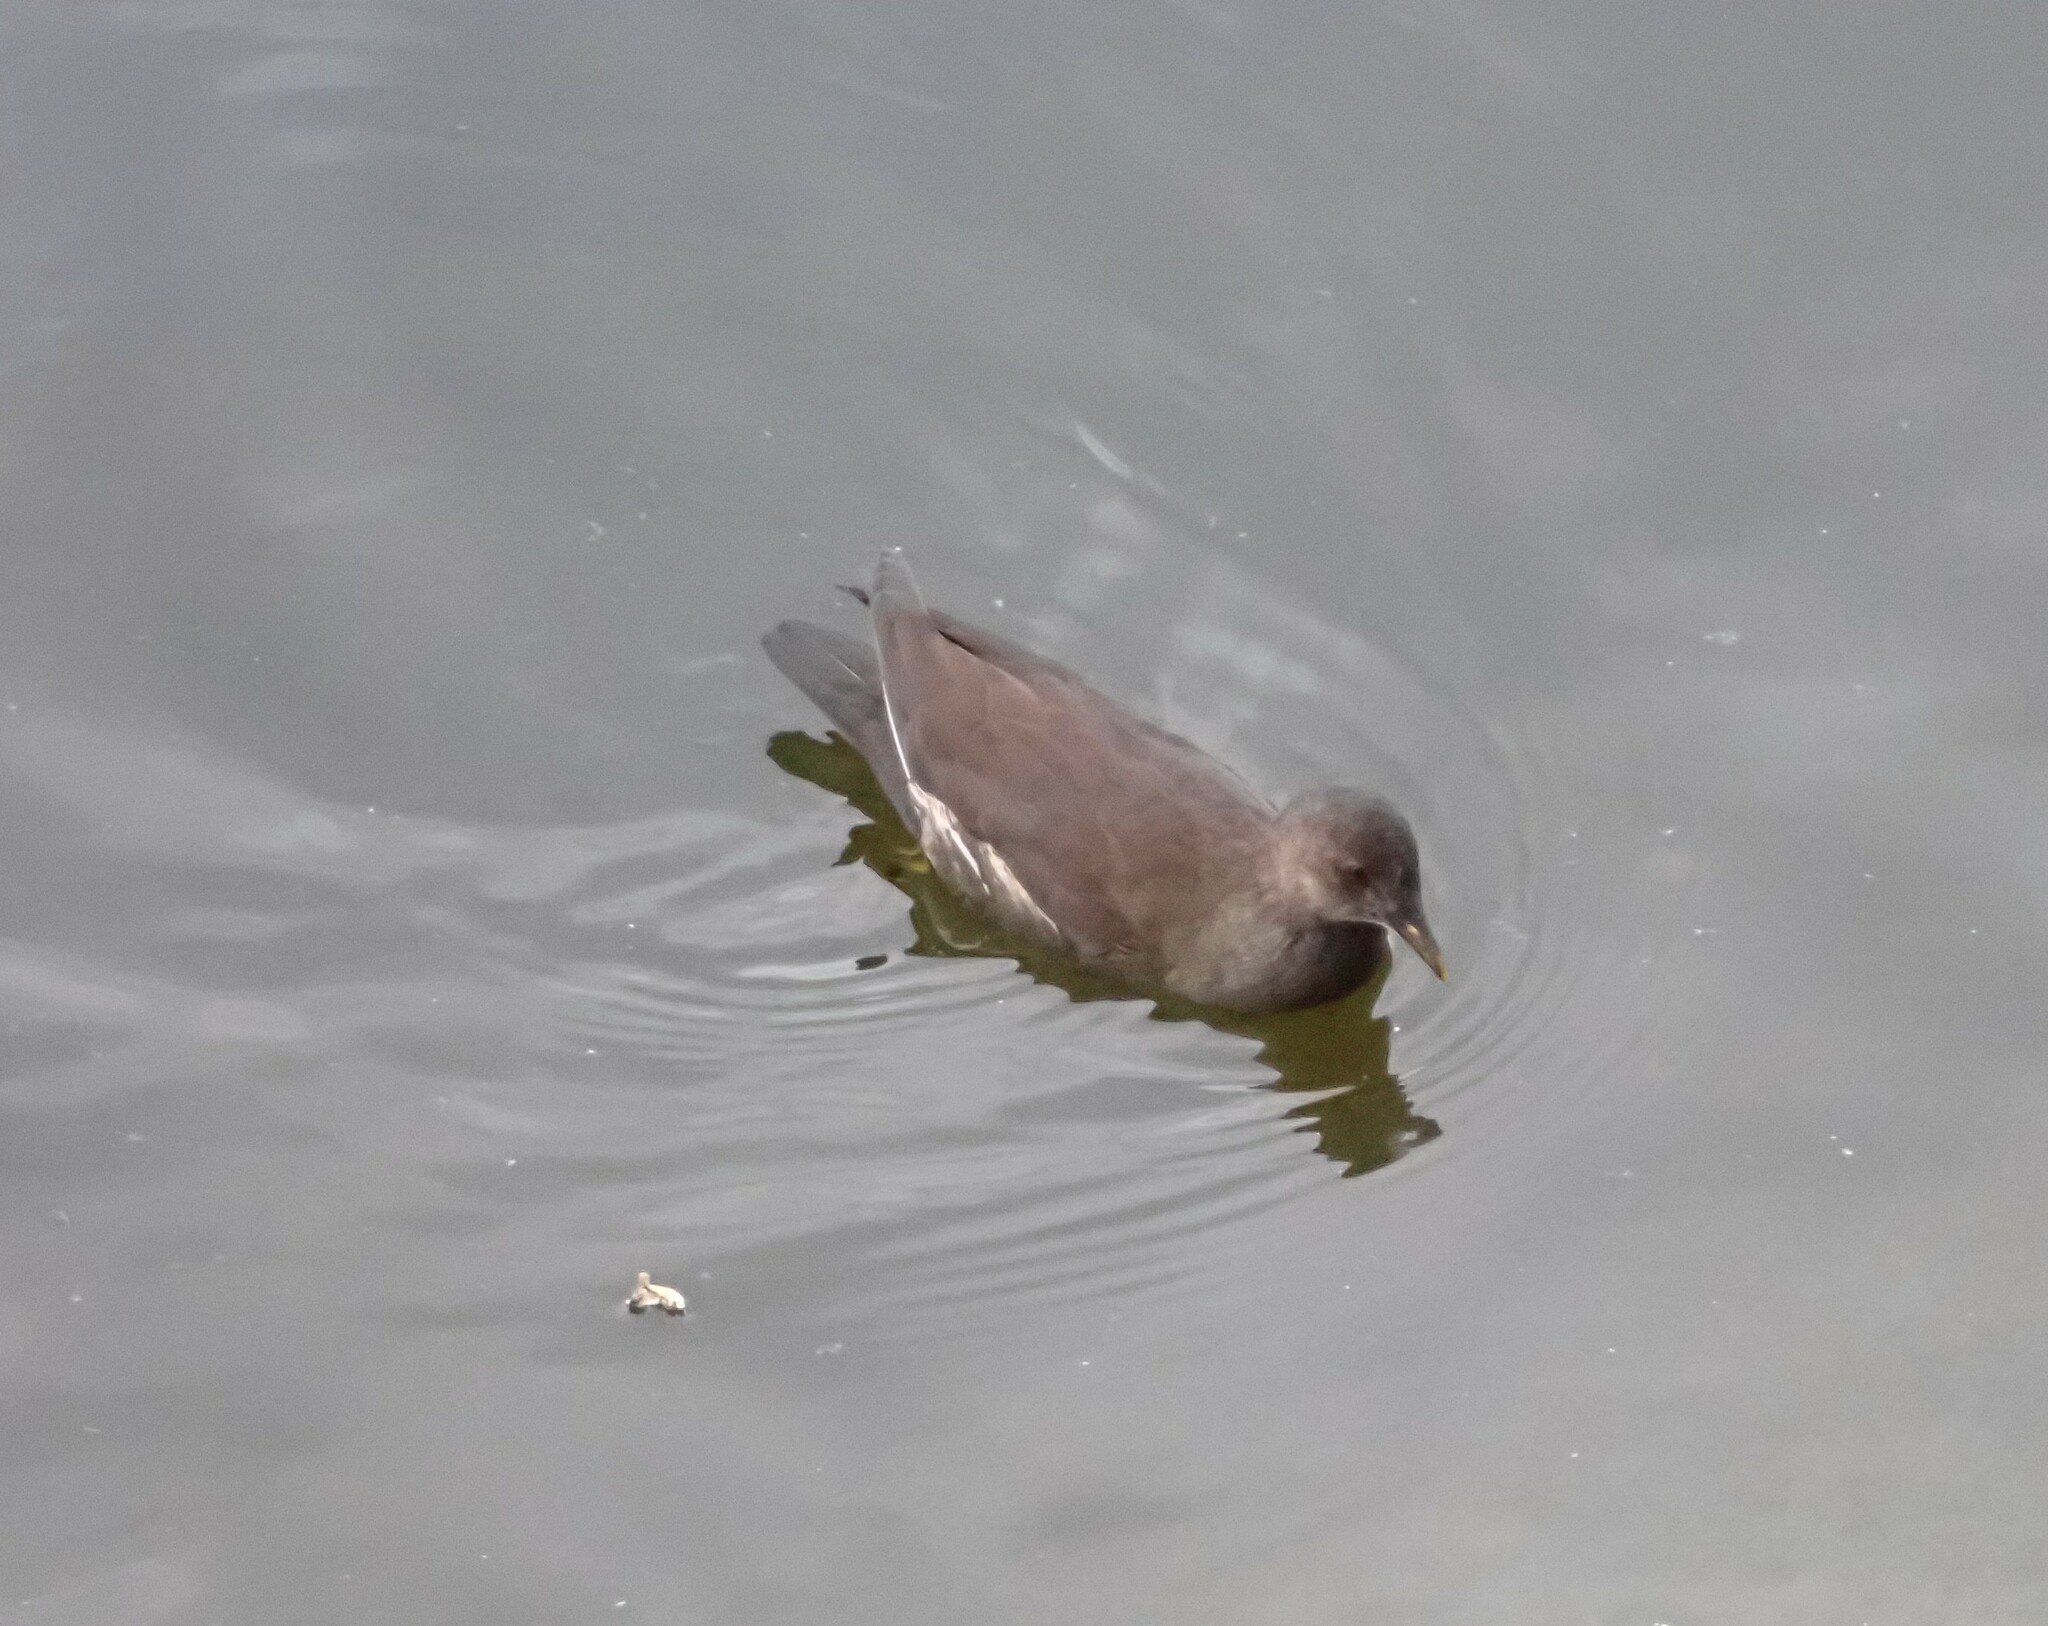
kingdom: Animalia
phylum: Chordata
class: Aves
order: Gruiformes
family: Rallidae
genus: Gallinula
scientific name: Gallinula chloropus
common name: Common moorhen
